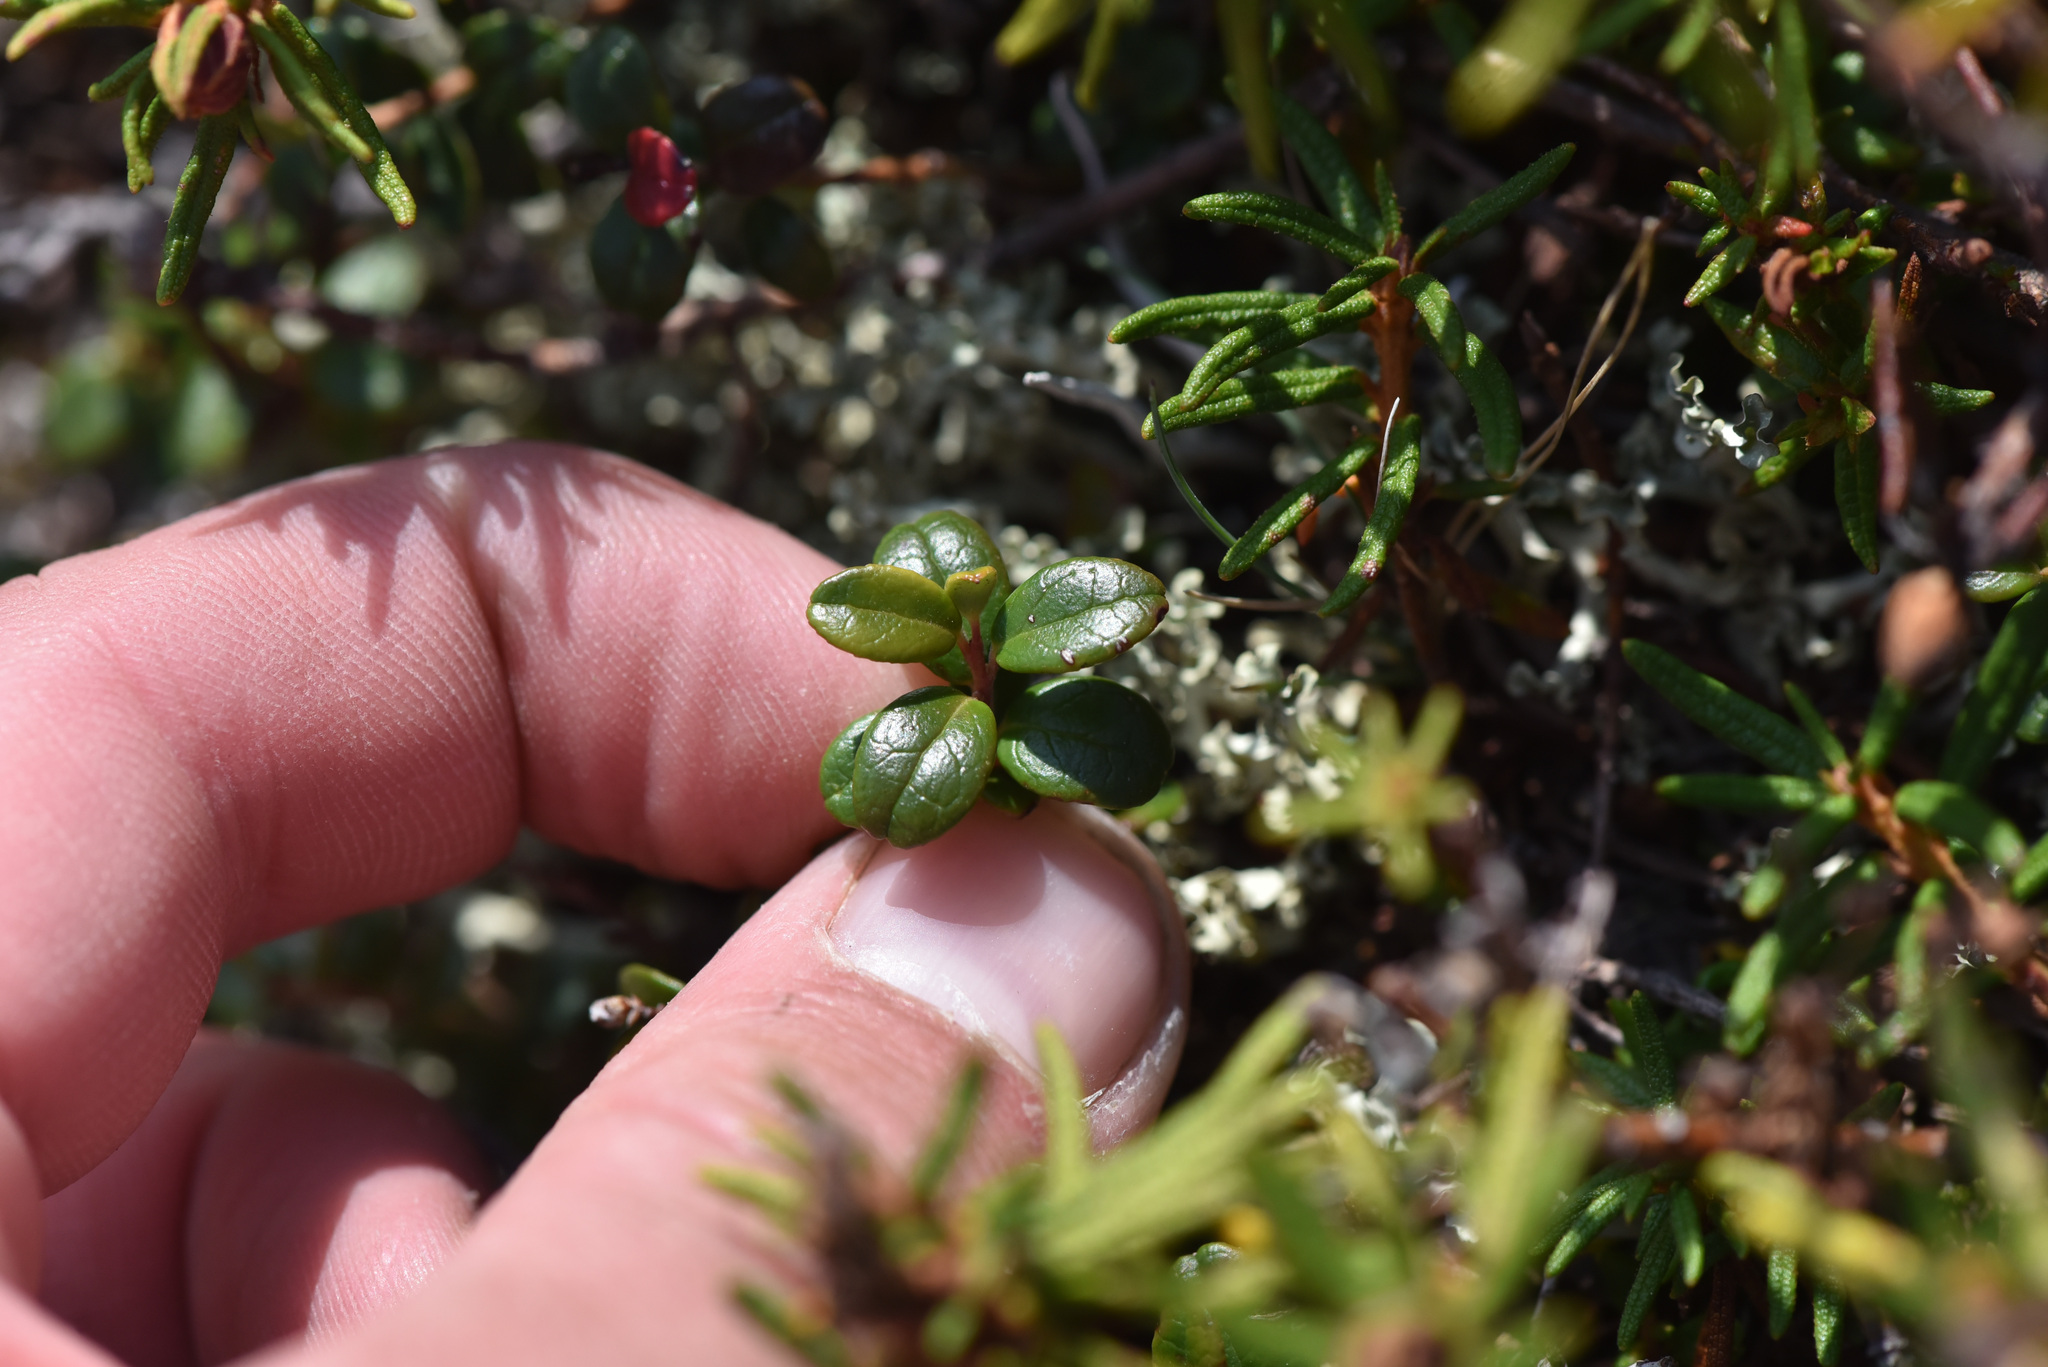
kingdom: Plantae
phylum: Tracheophyta
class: Magnoliopsida
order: Ericales
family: Ericaceae
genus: Vaccinium
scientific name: Vaccinium vitis-idaea
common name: Cowberry
